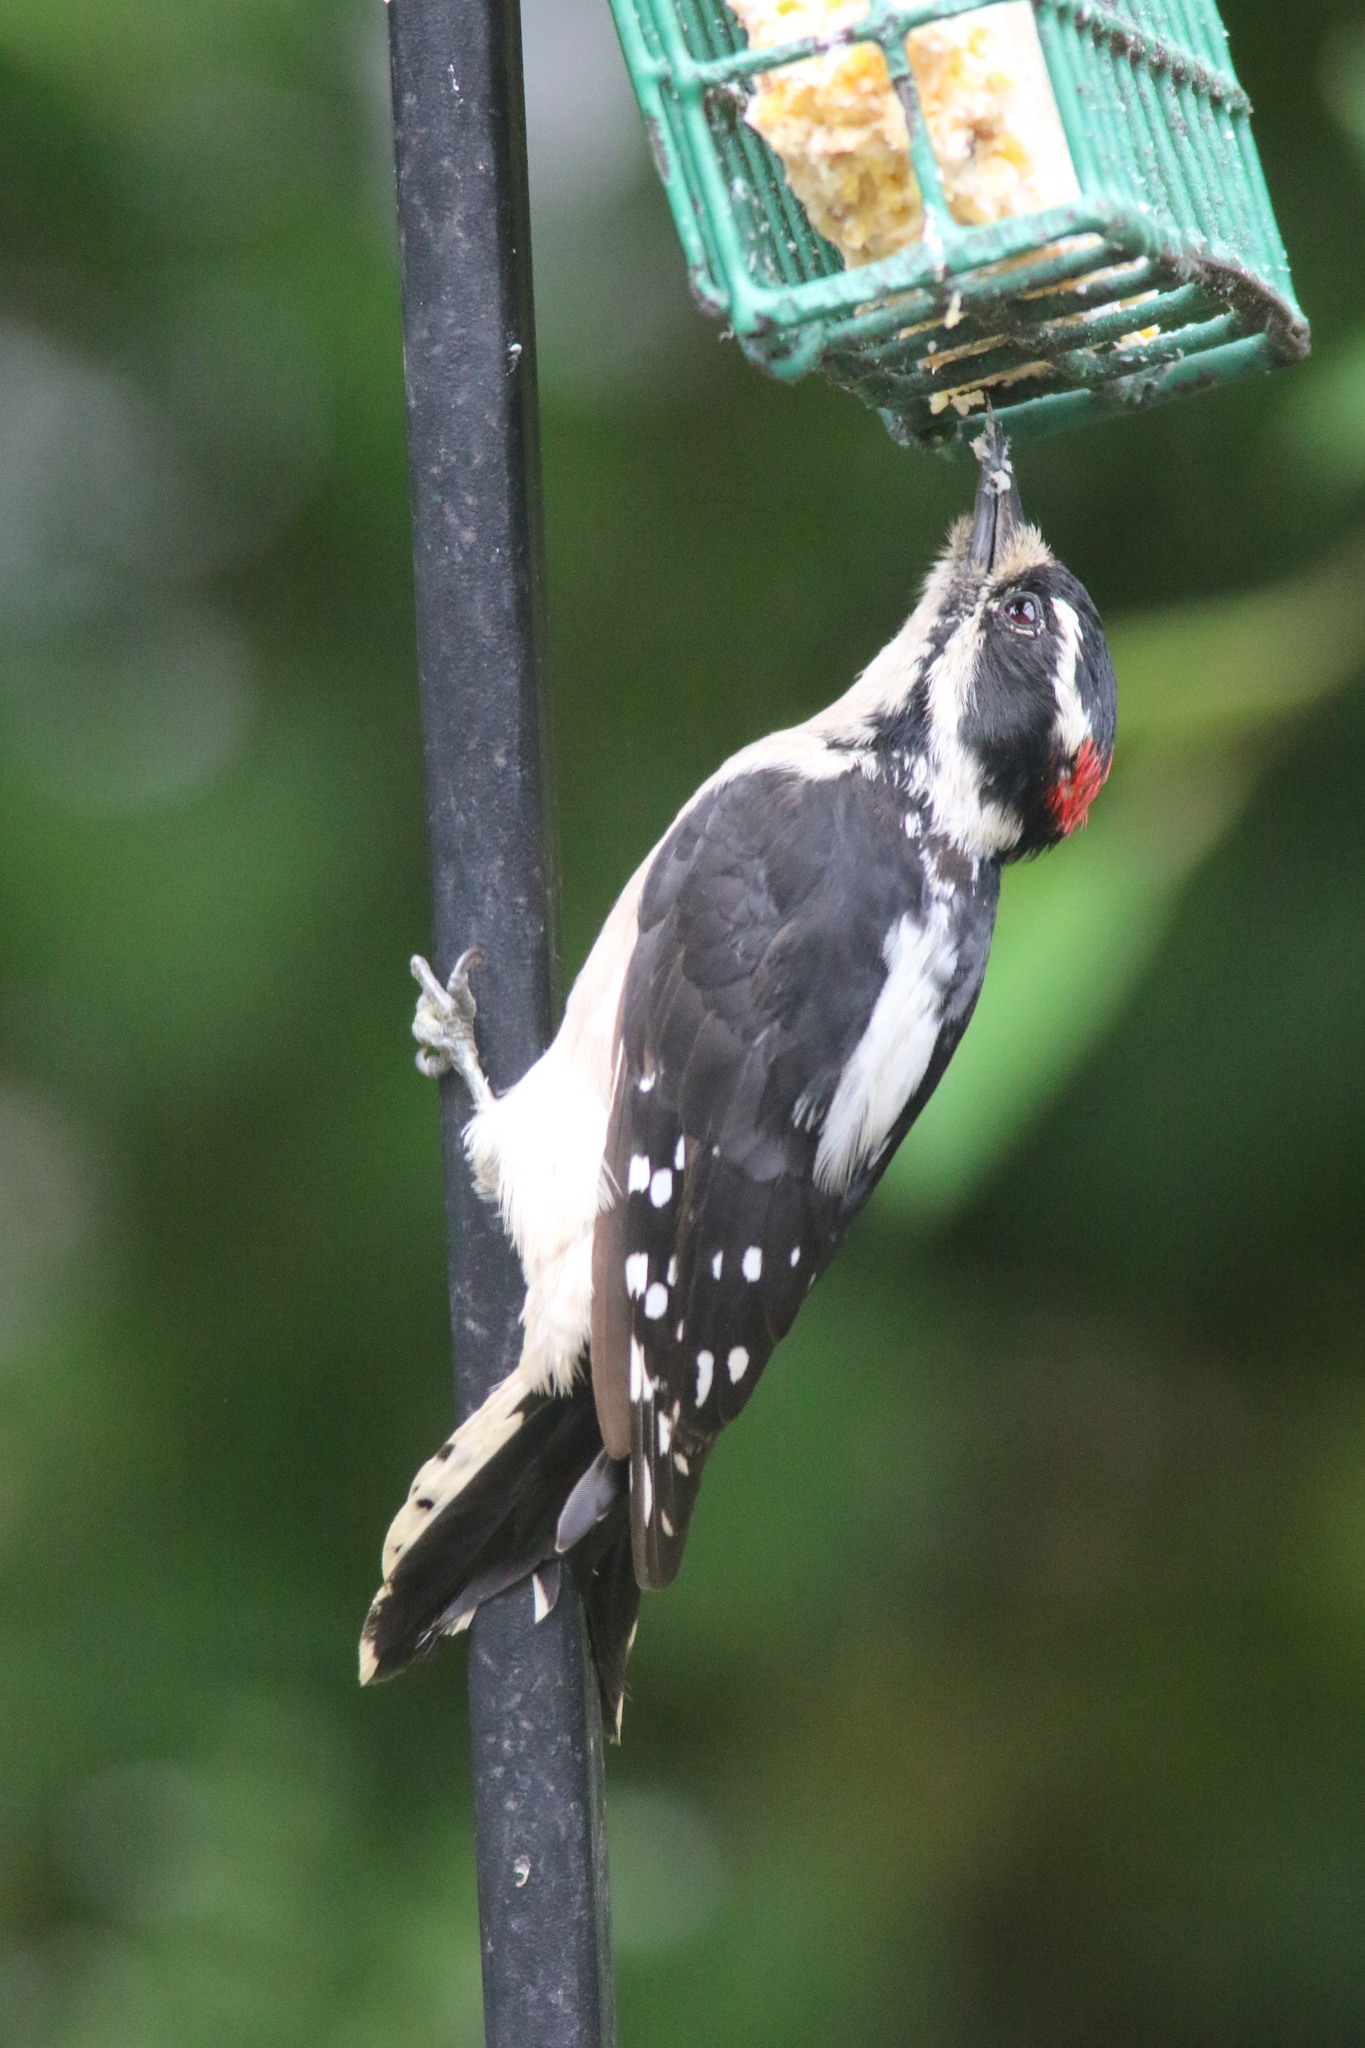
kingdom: Animalia
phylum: Chordata
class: Aves
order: Piciformes
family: Picidae
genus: Dryobates
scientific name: Dryobates pubescens
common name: Downy woodpecker
